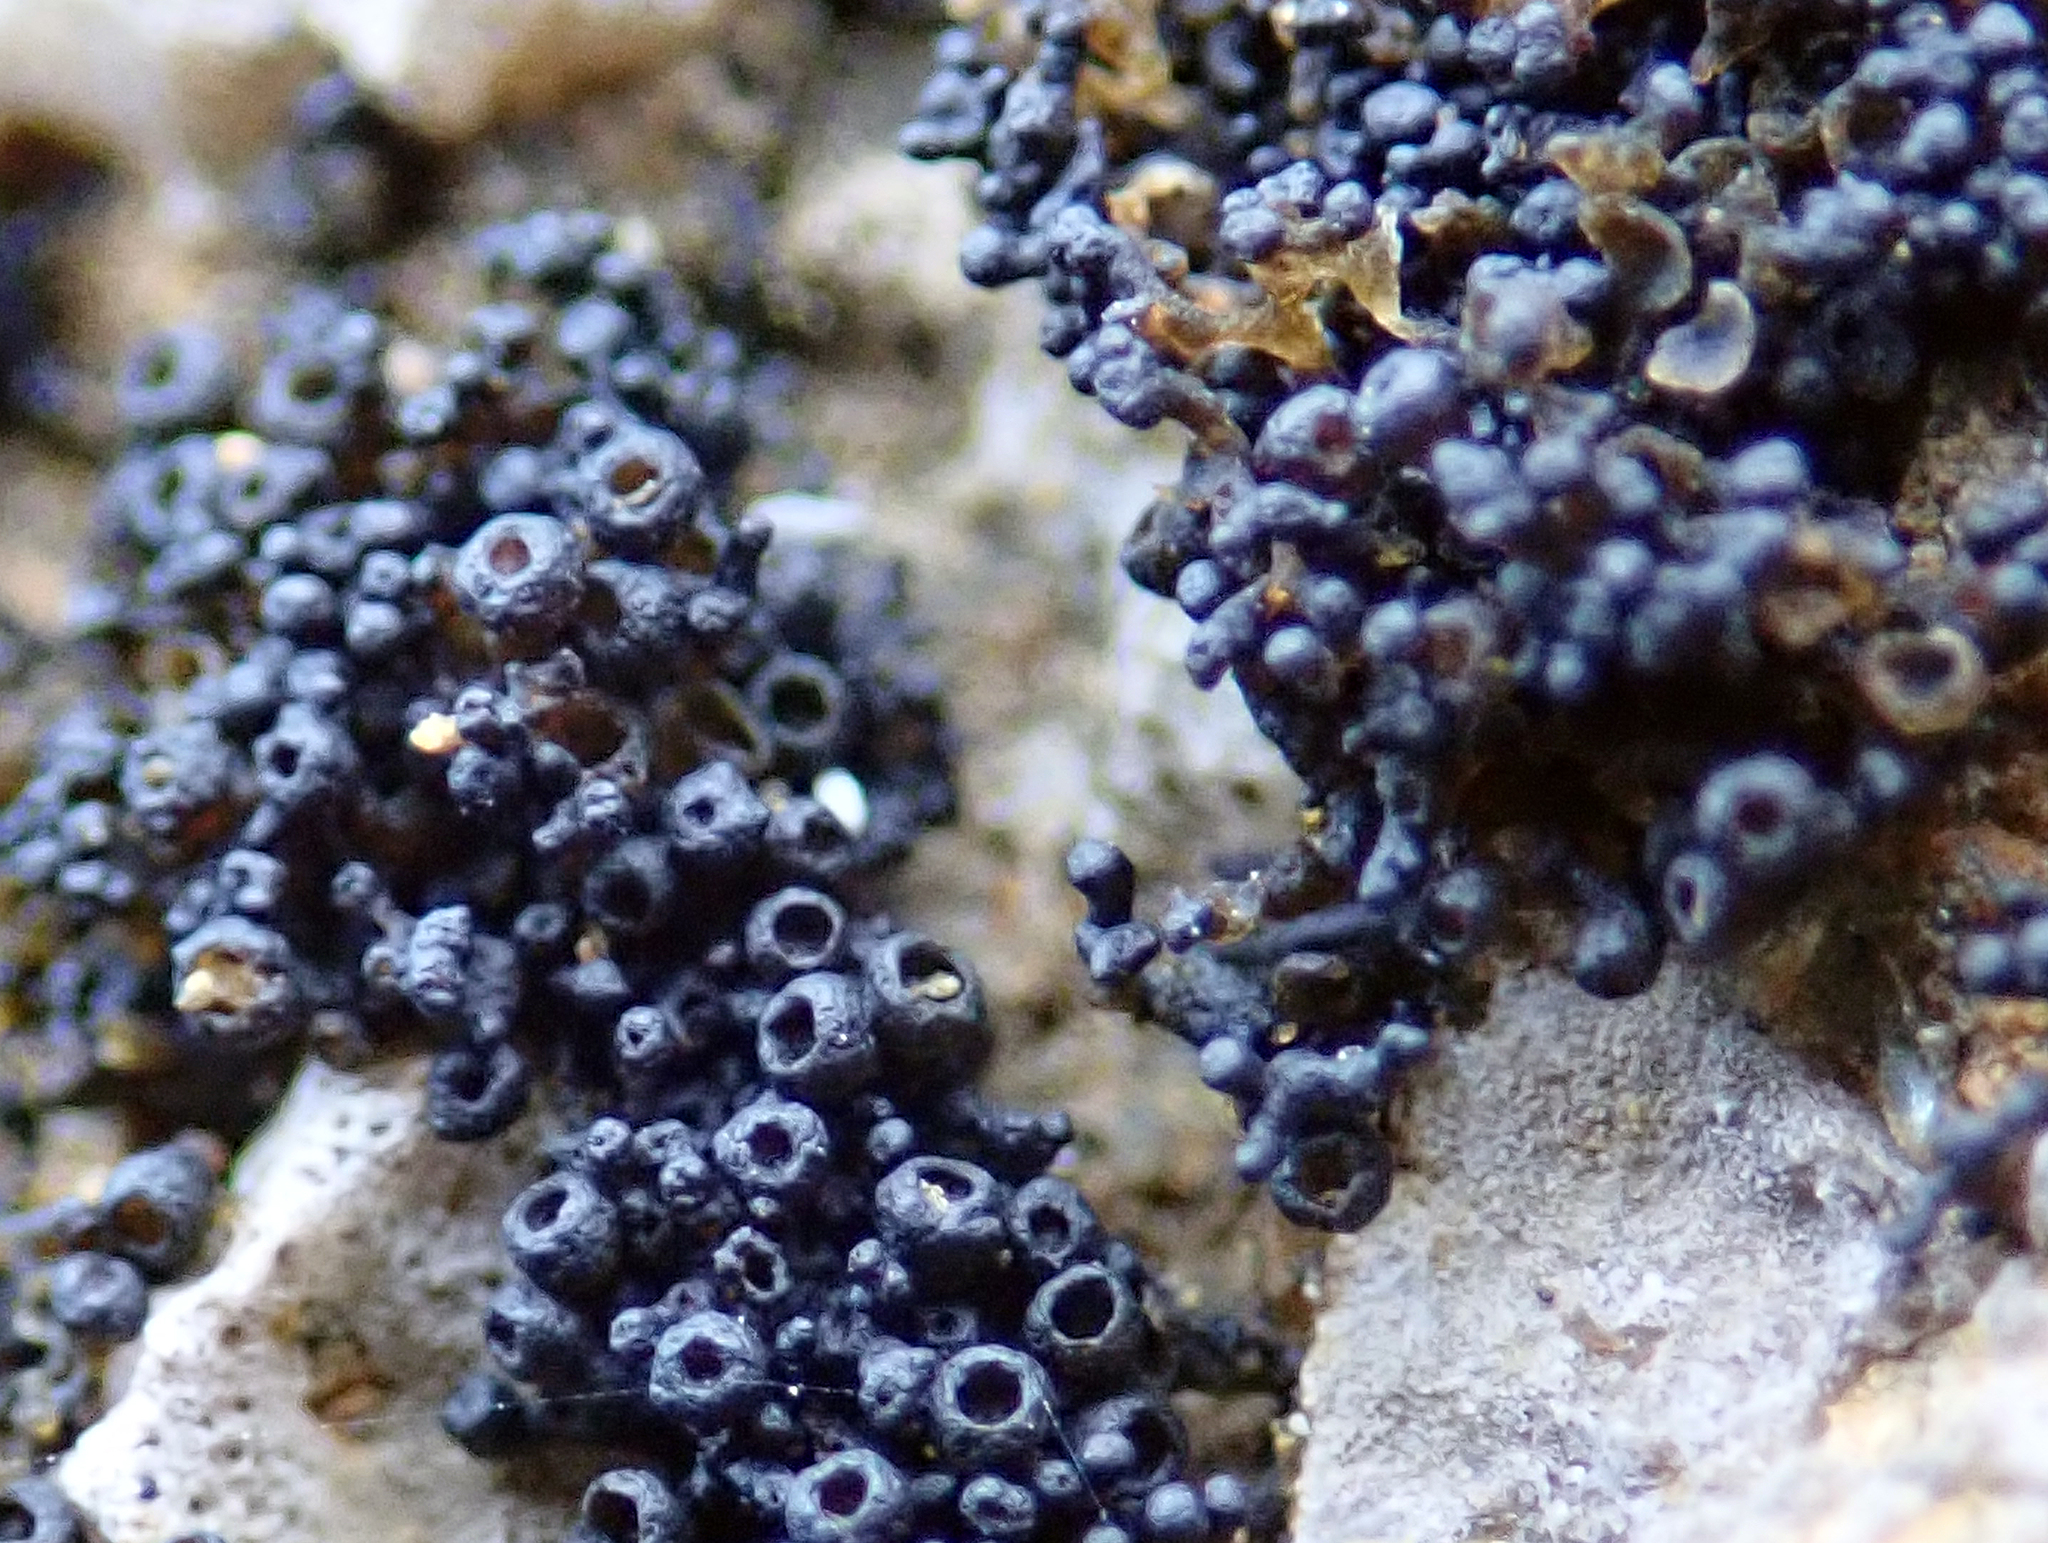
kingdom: Fungi
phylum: Ascomycota
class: Lichinomycetes
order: Lichinales
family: Lichinaceae
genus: Lichina
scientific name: Lichina intermedia
